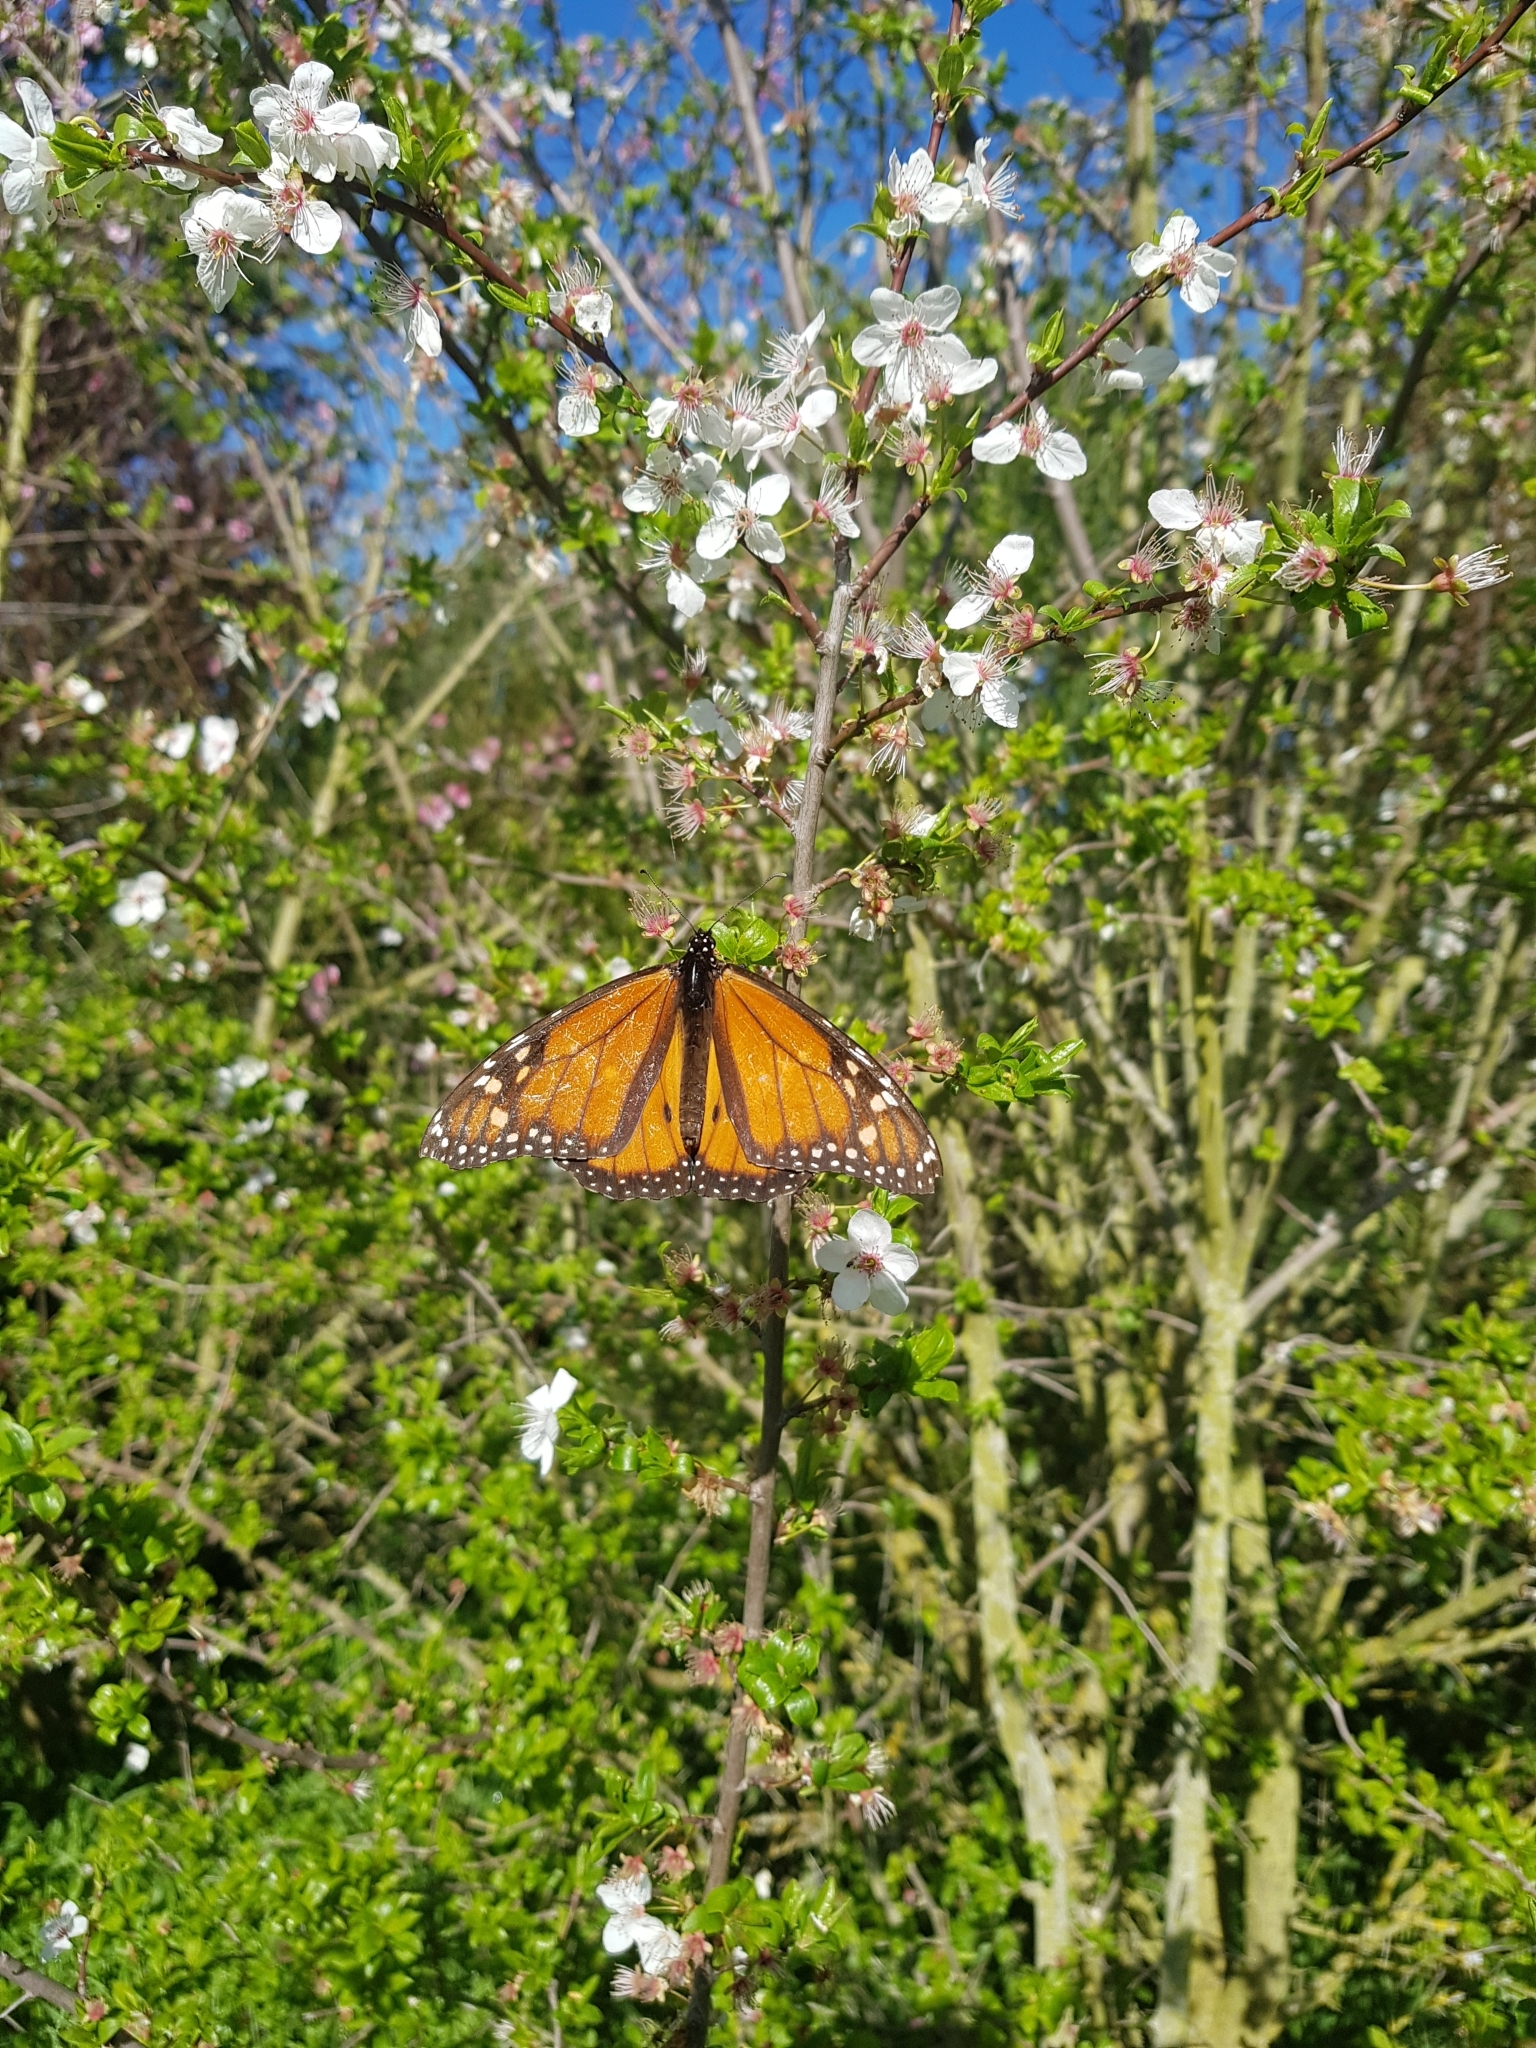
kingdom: Animalia
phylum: Arthropoda
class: Insecta
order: Lepidoptera
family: Nymphalidae
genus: Danaus
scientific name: Danaus plexippus
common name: Monarch
